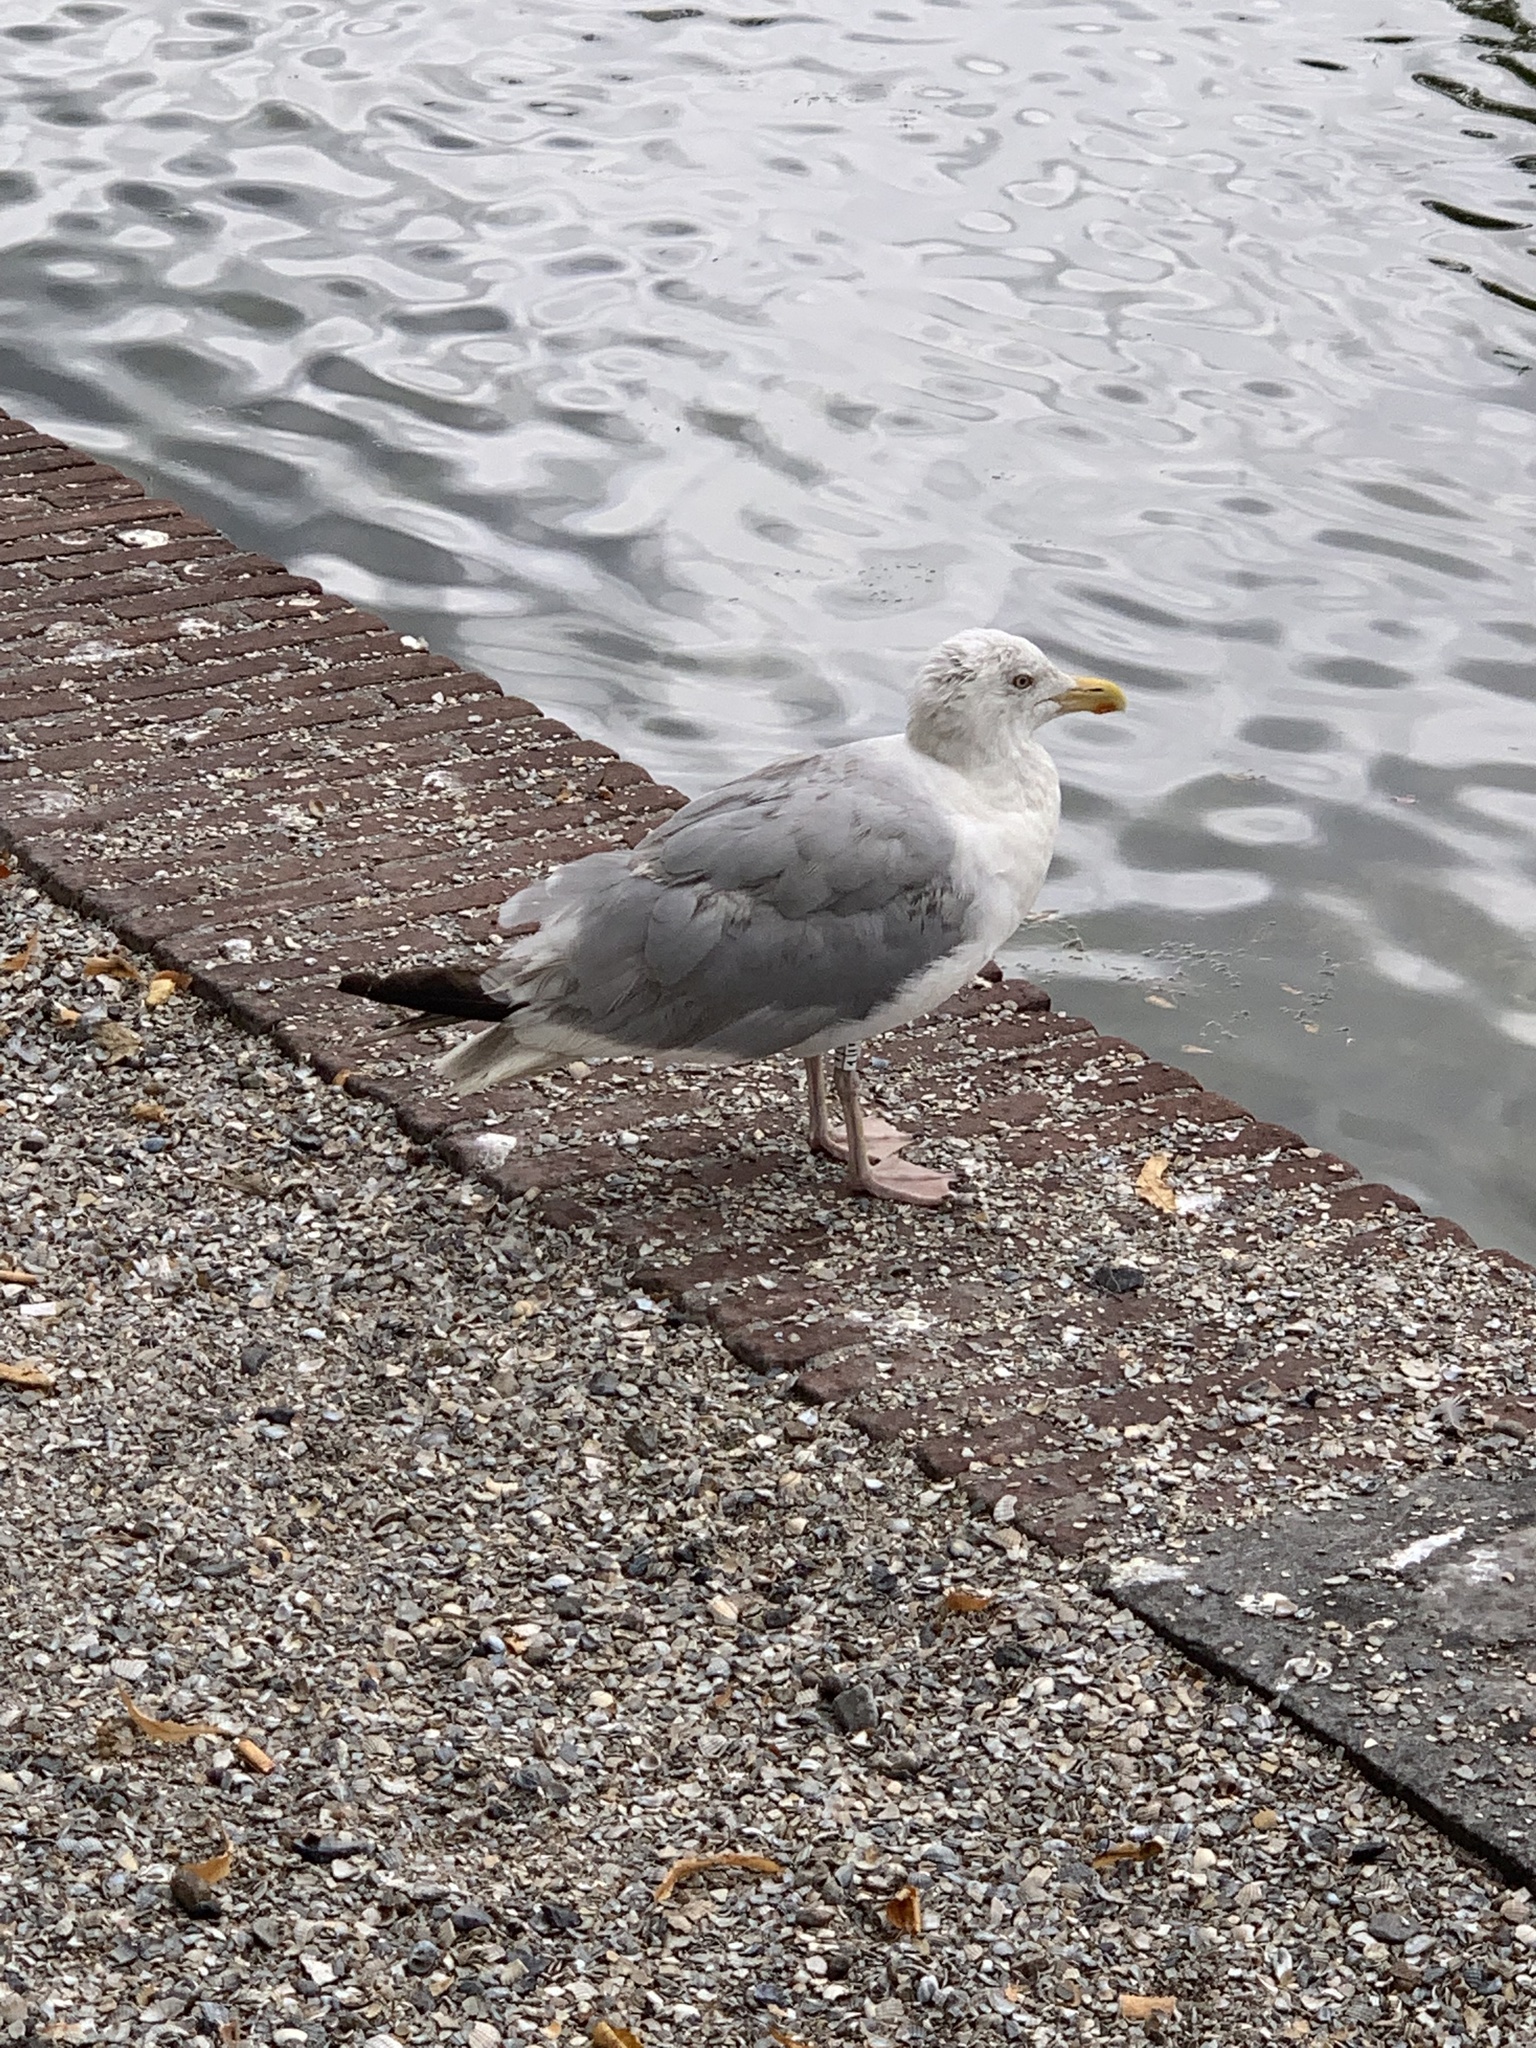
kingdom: Animalia
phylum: Chordata
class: Aves
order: Charadriiformes
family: Laridae
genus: Larus
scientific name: Larus argentatus
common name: Herring gull
